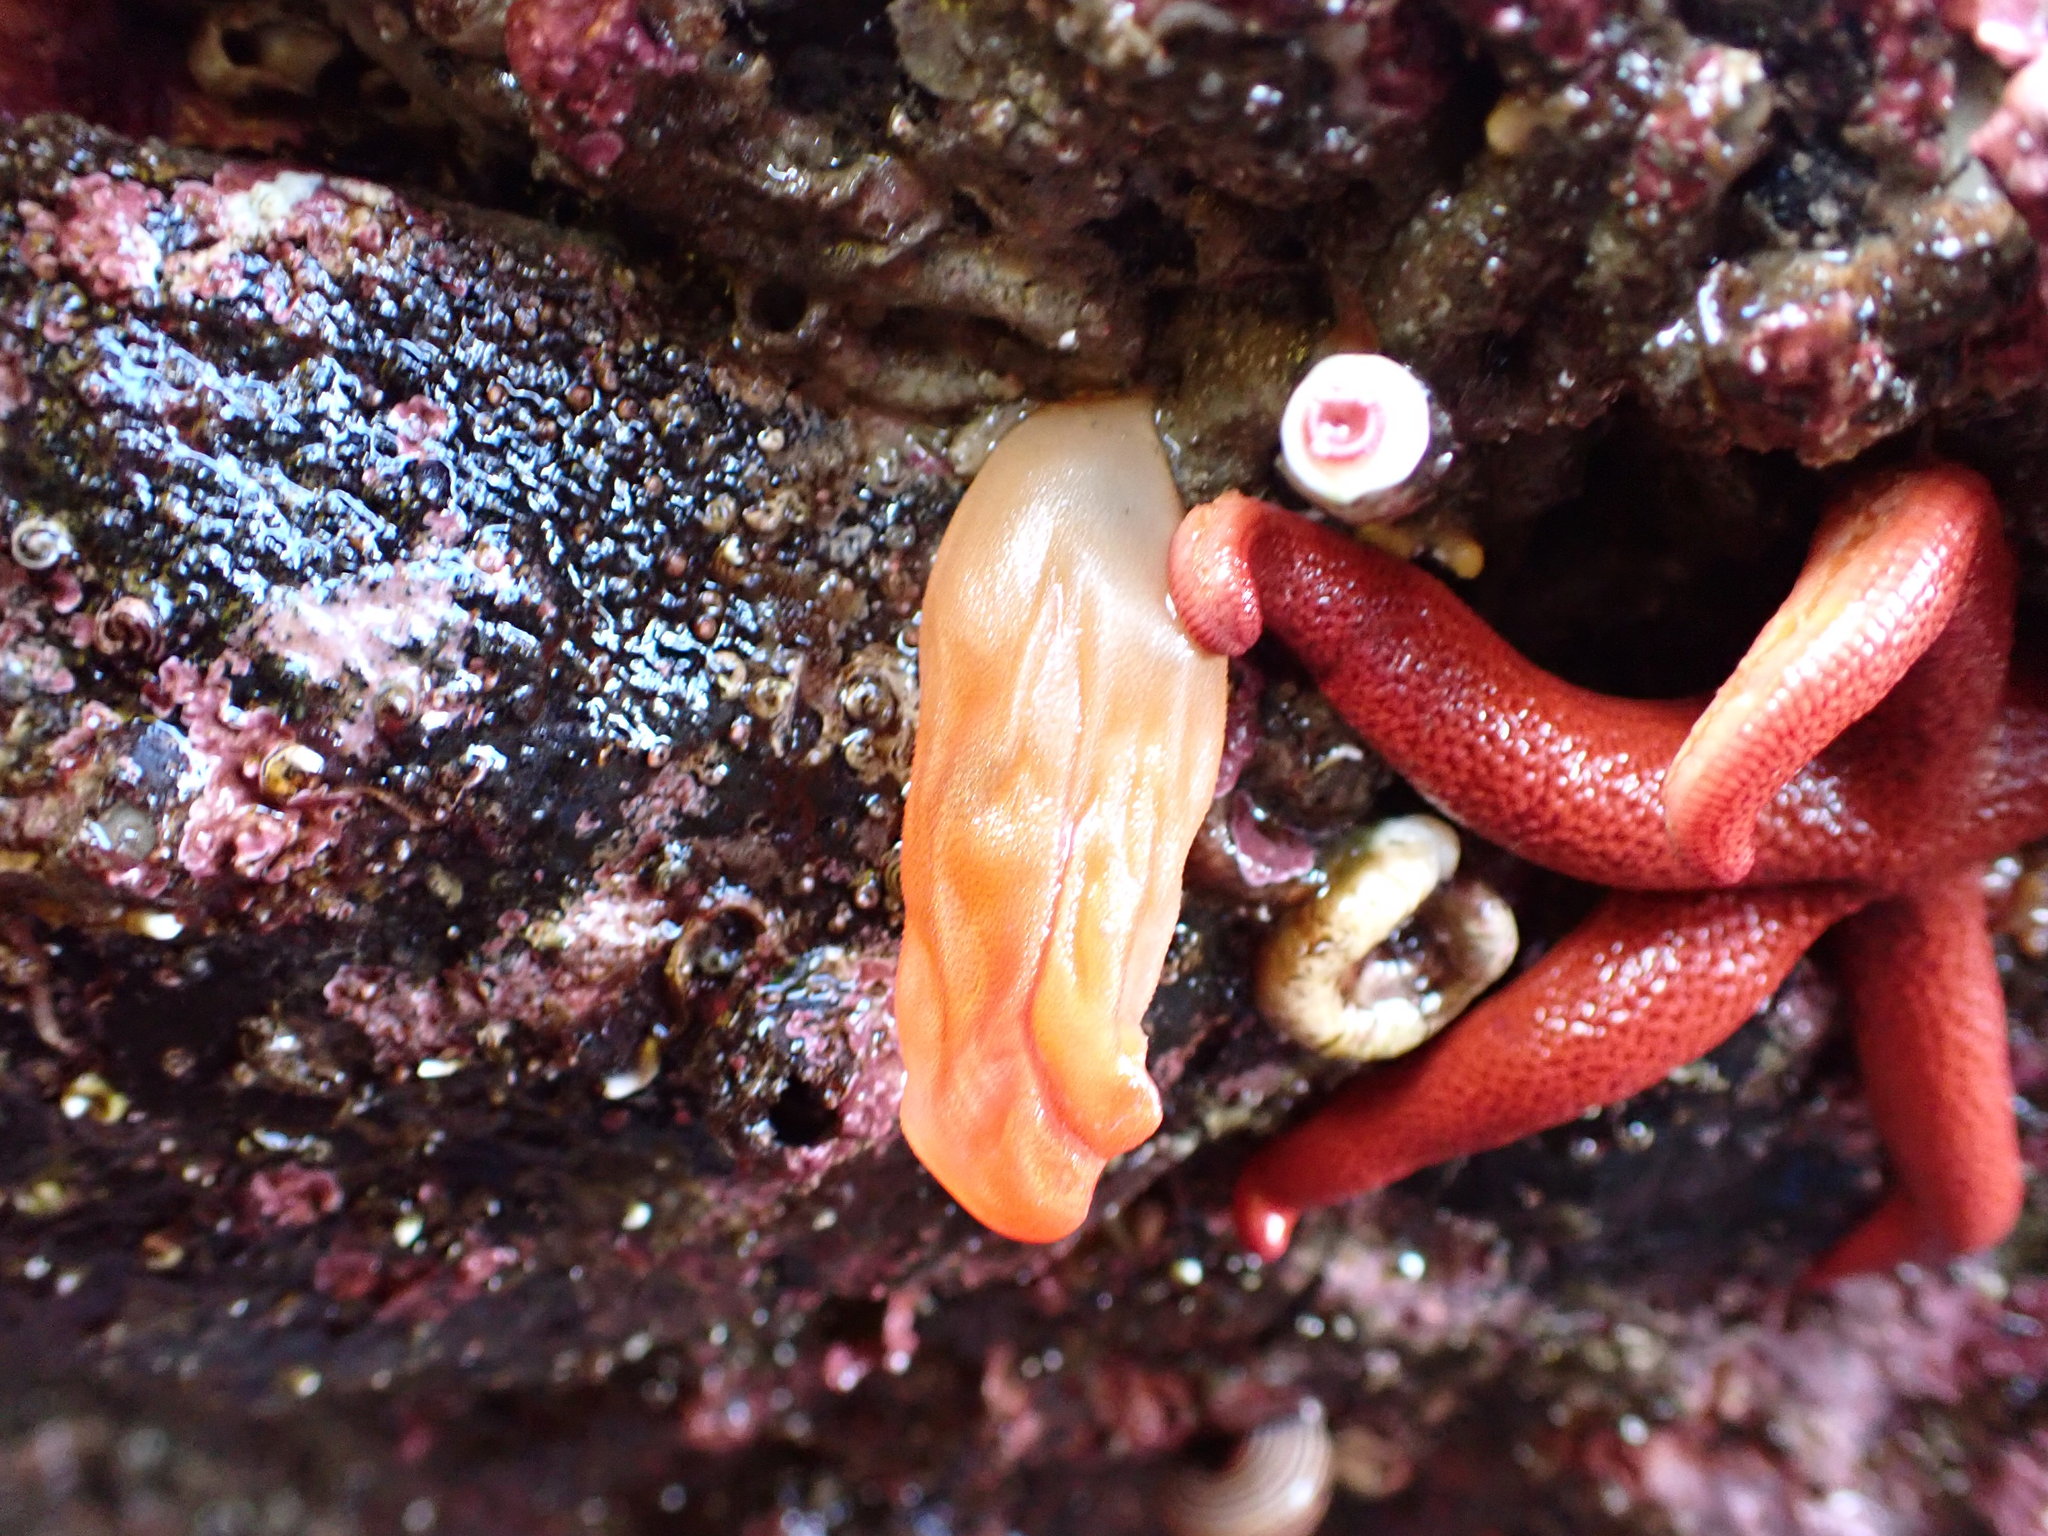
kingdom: Animalia
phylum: Chordata
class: Ascidiacea
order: Stolidobranchia
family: Pyuridae
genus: Halocynthia
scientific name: Halocynthia aurantium
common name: Sea peach
